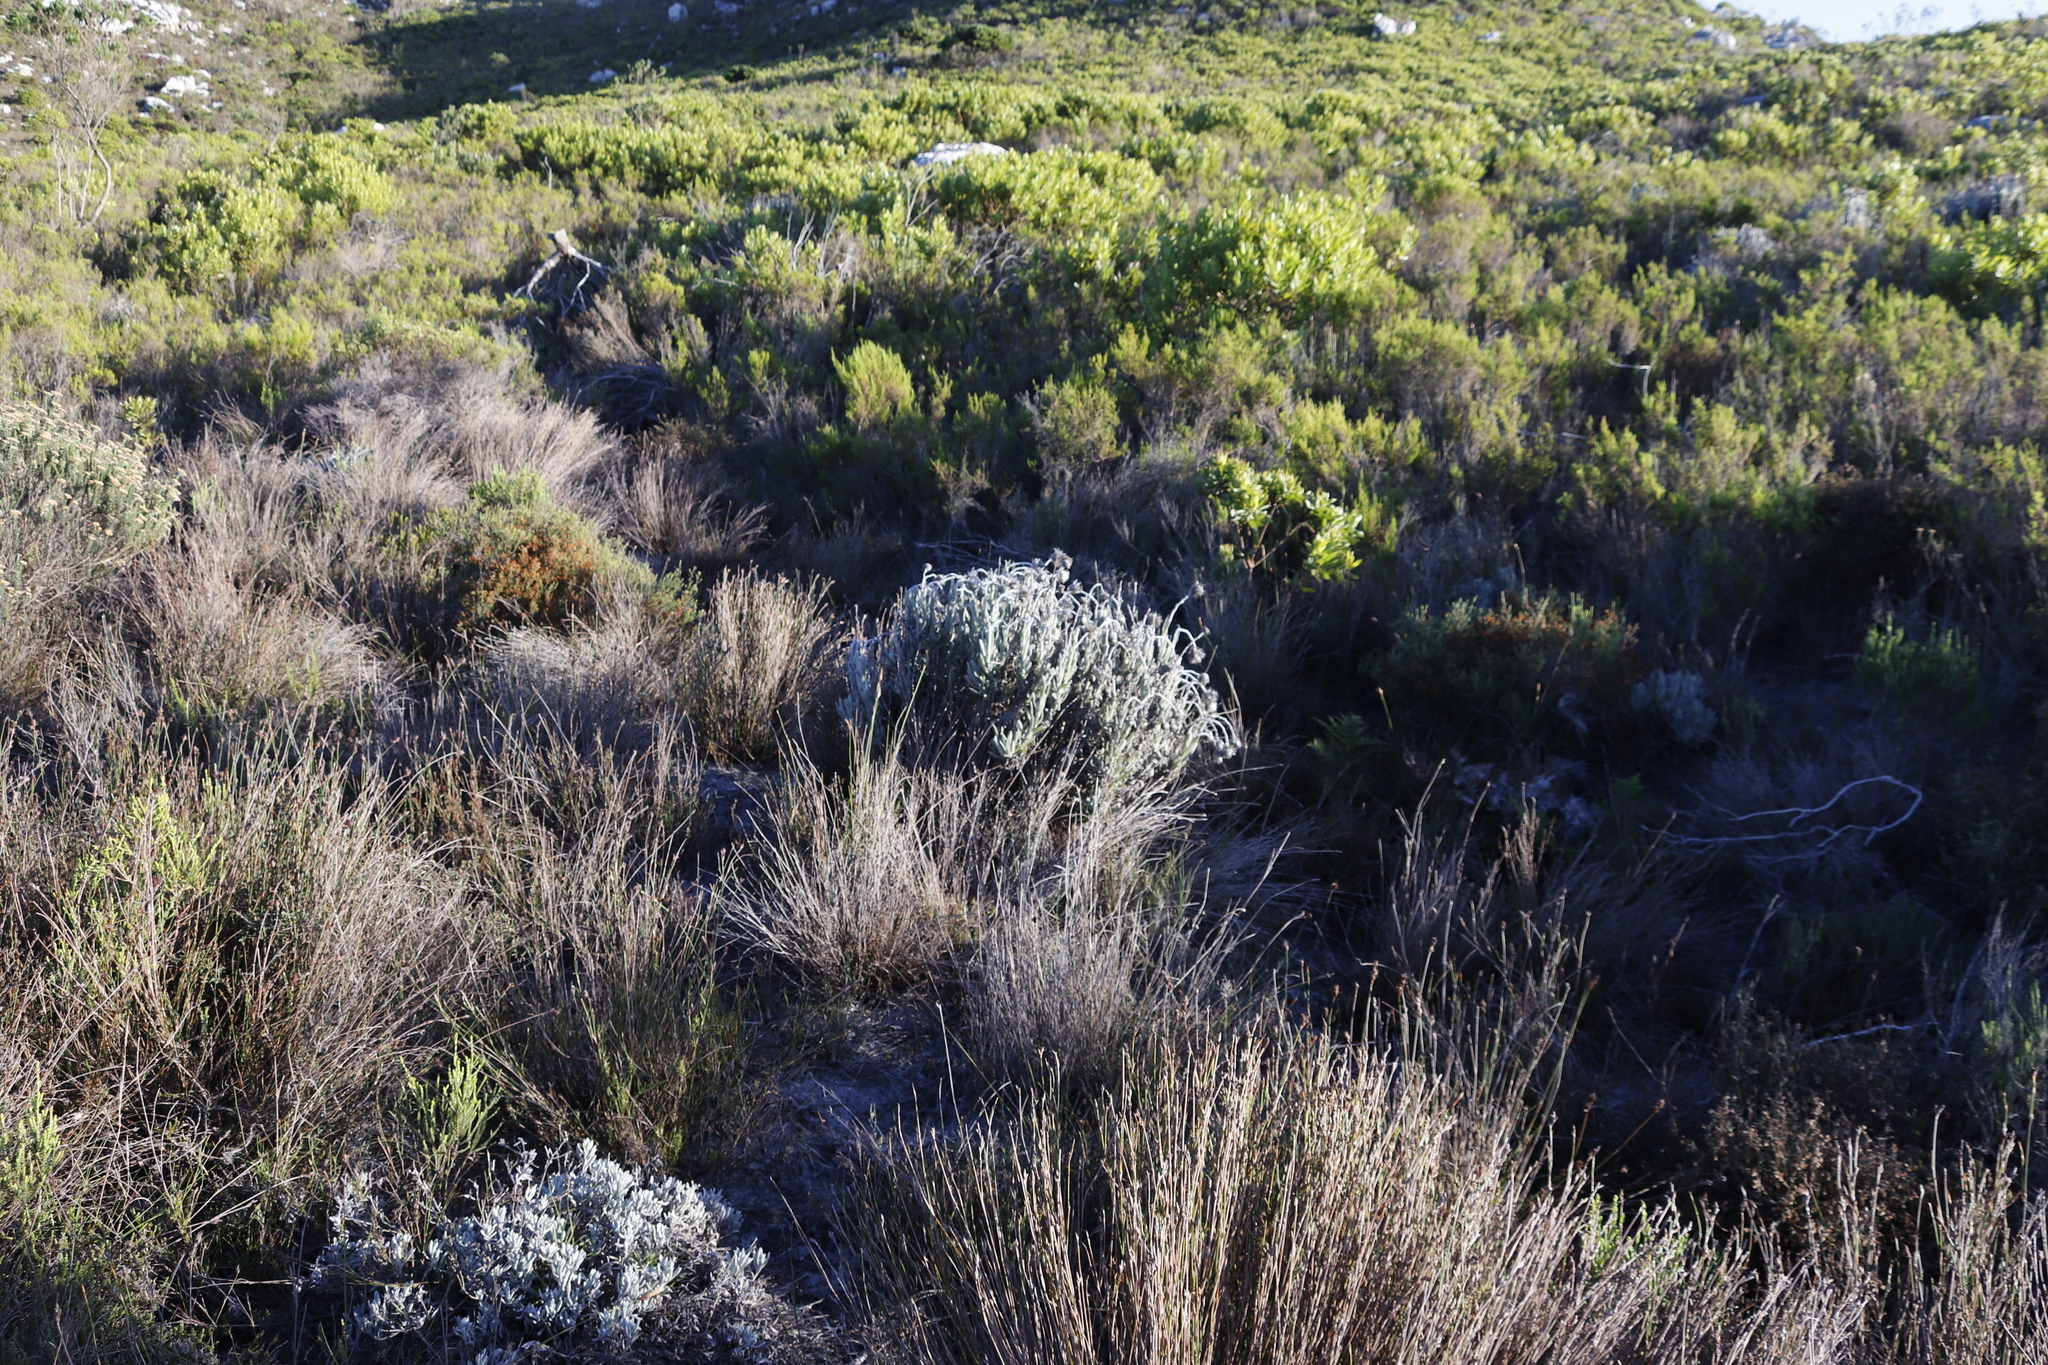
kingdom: Plantae
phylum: Tracheophyta
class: Magnoliopsida
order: Asterales
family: Asteraceae
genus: Syncarpha
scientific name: Syncarpha vestita
